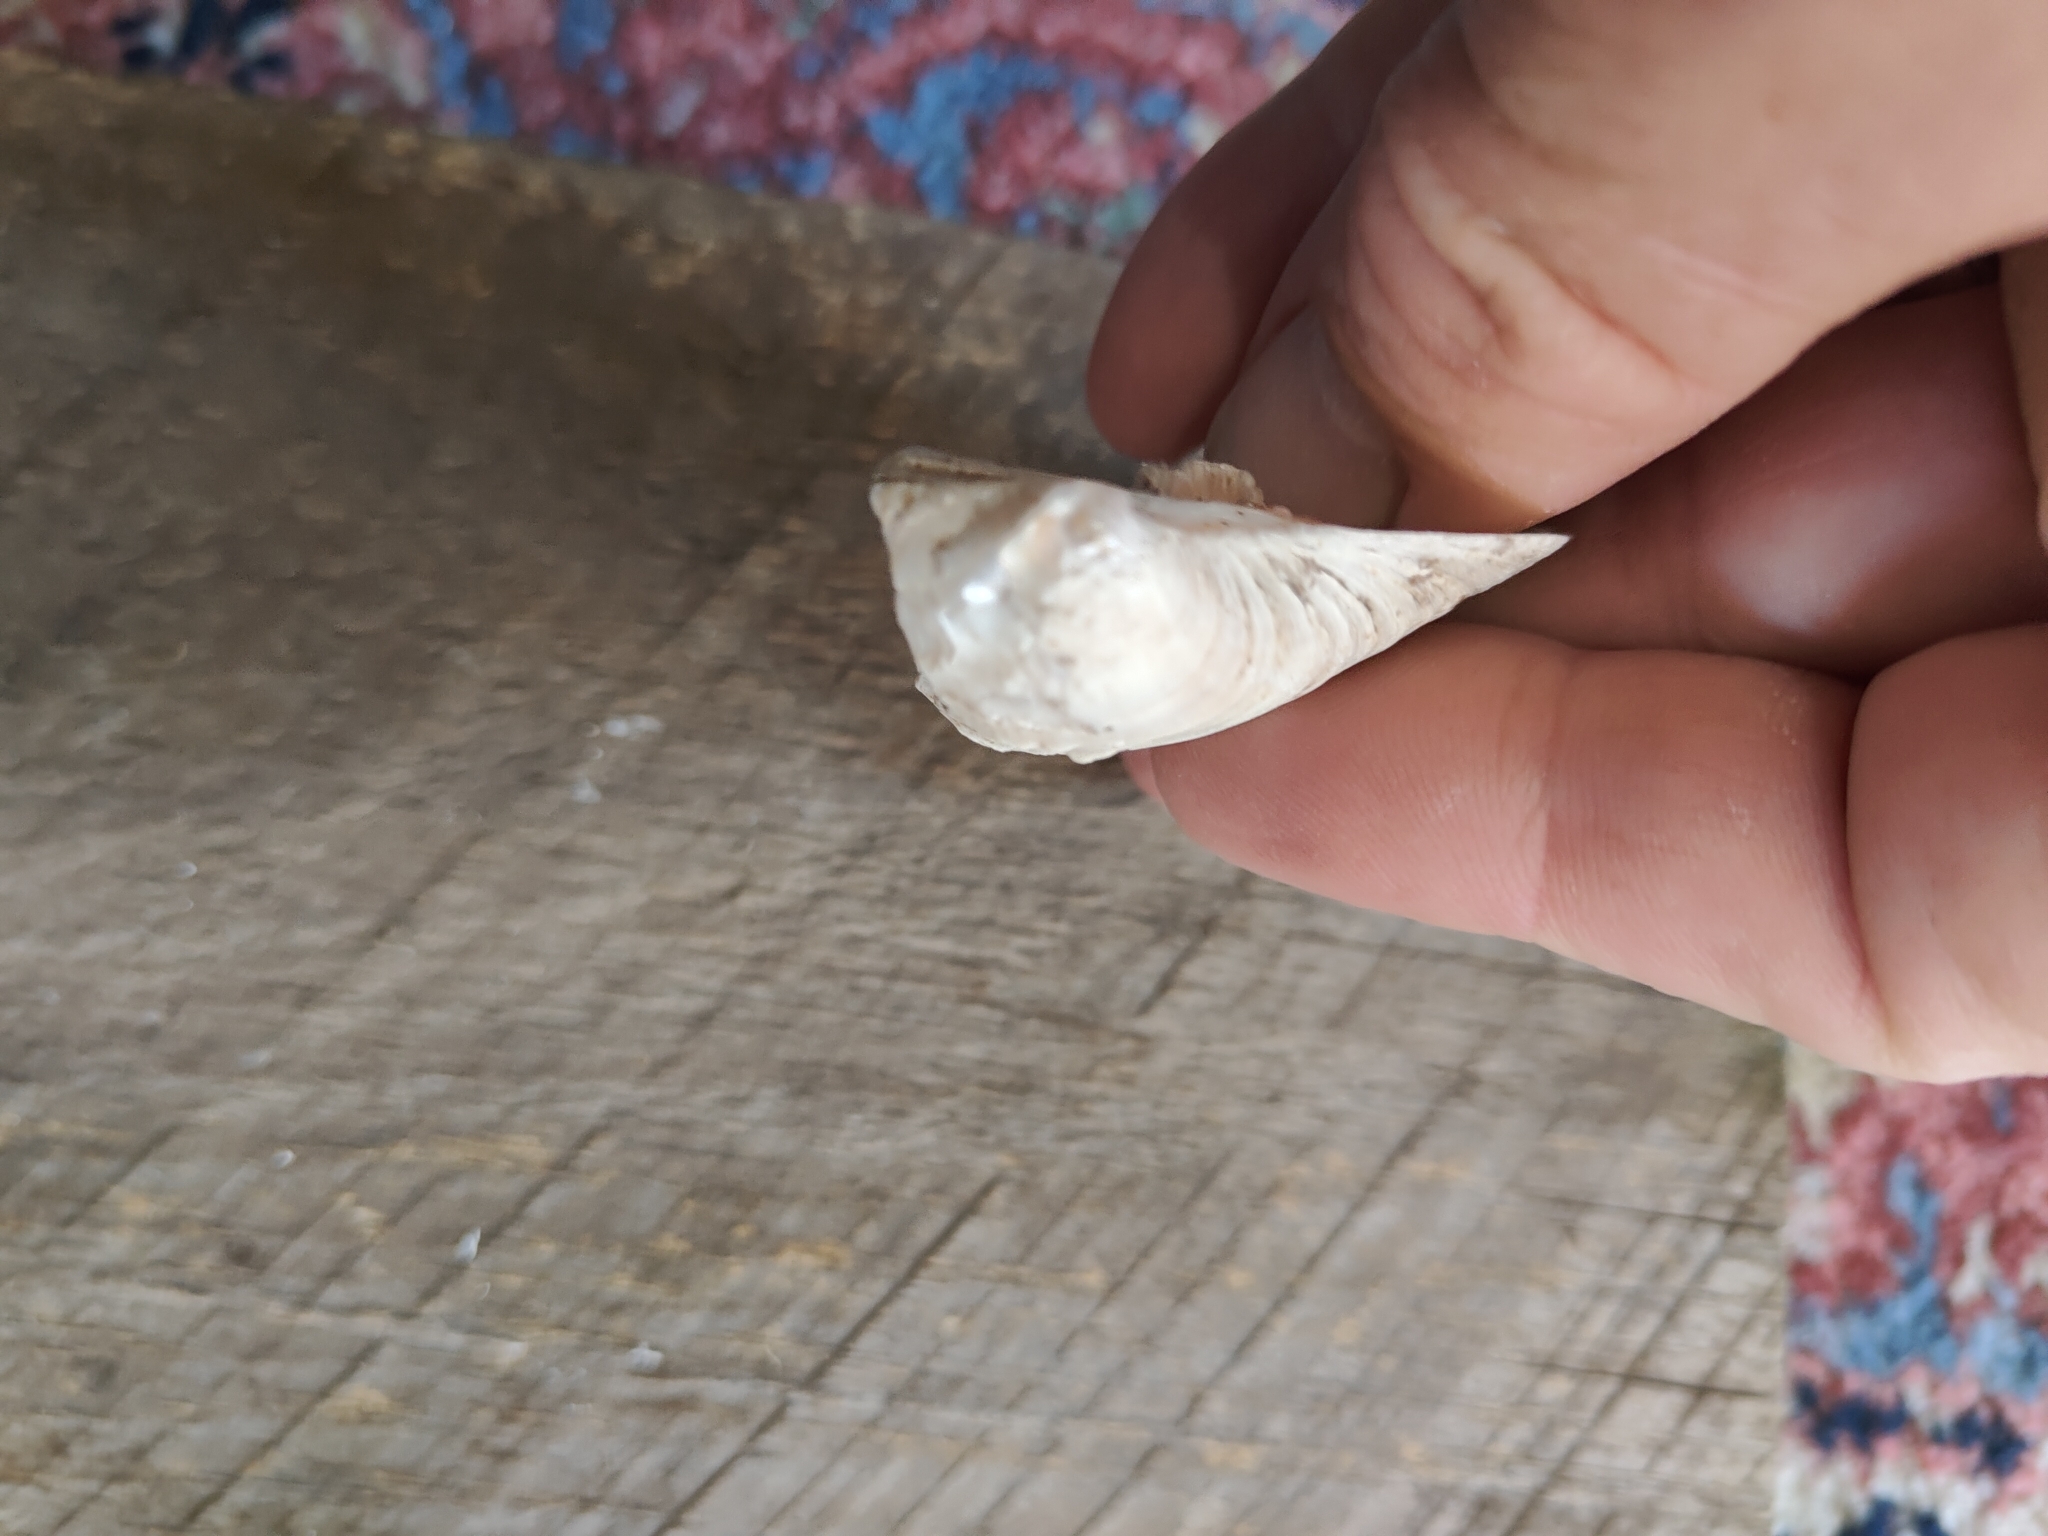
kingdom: Animalia
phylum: Mollusca
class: Bivalvia
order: Unionida
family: Unionidae
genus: Quadrula
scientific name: Quadrula quadrula
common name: Mapleleaf
